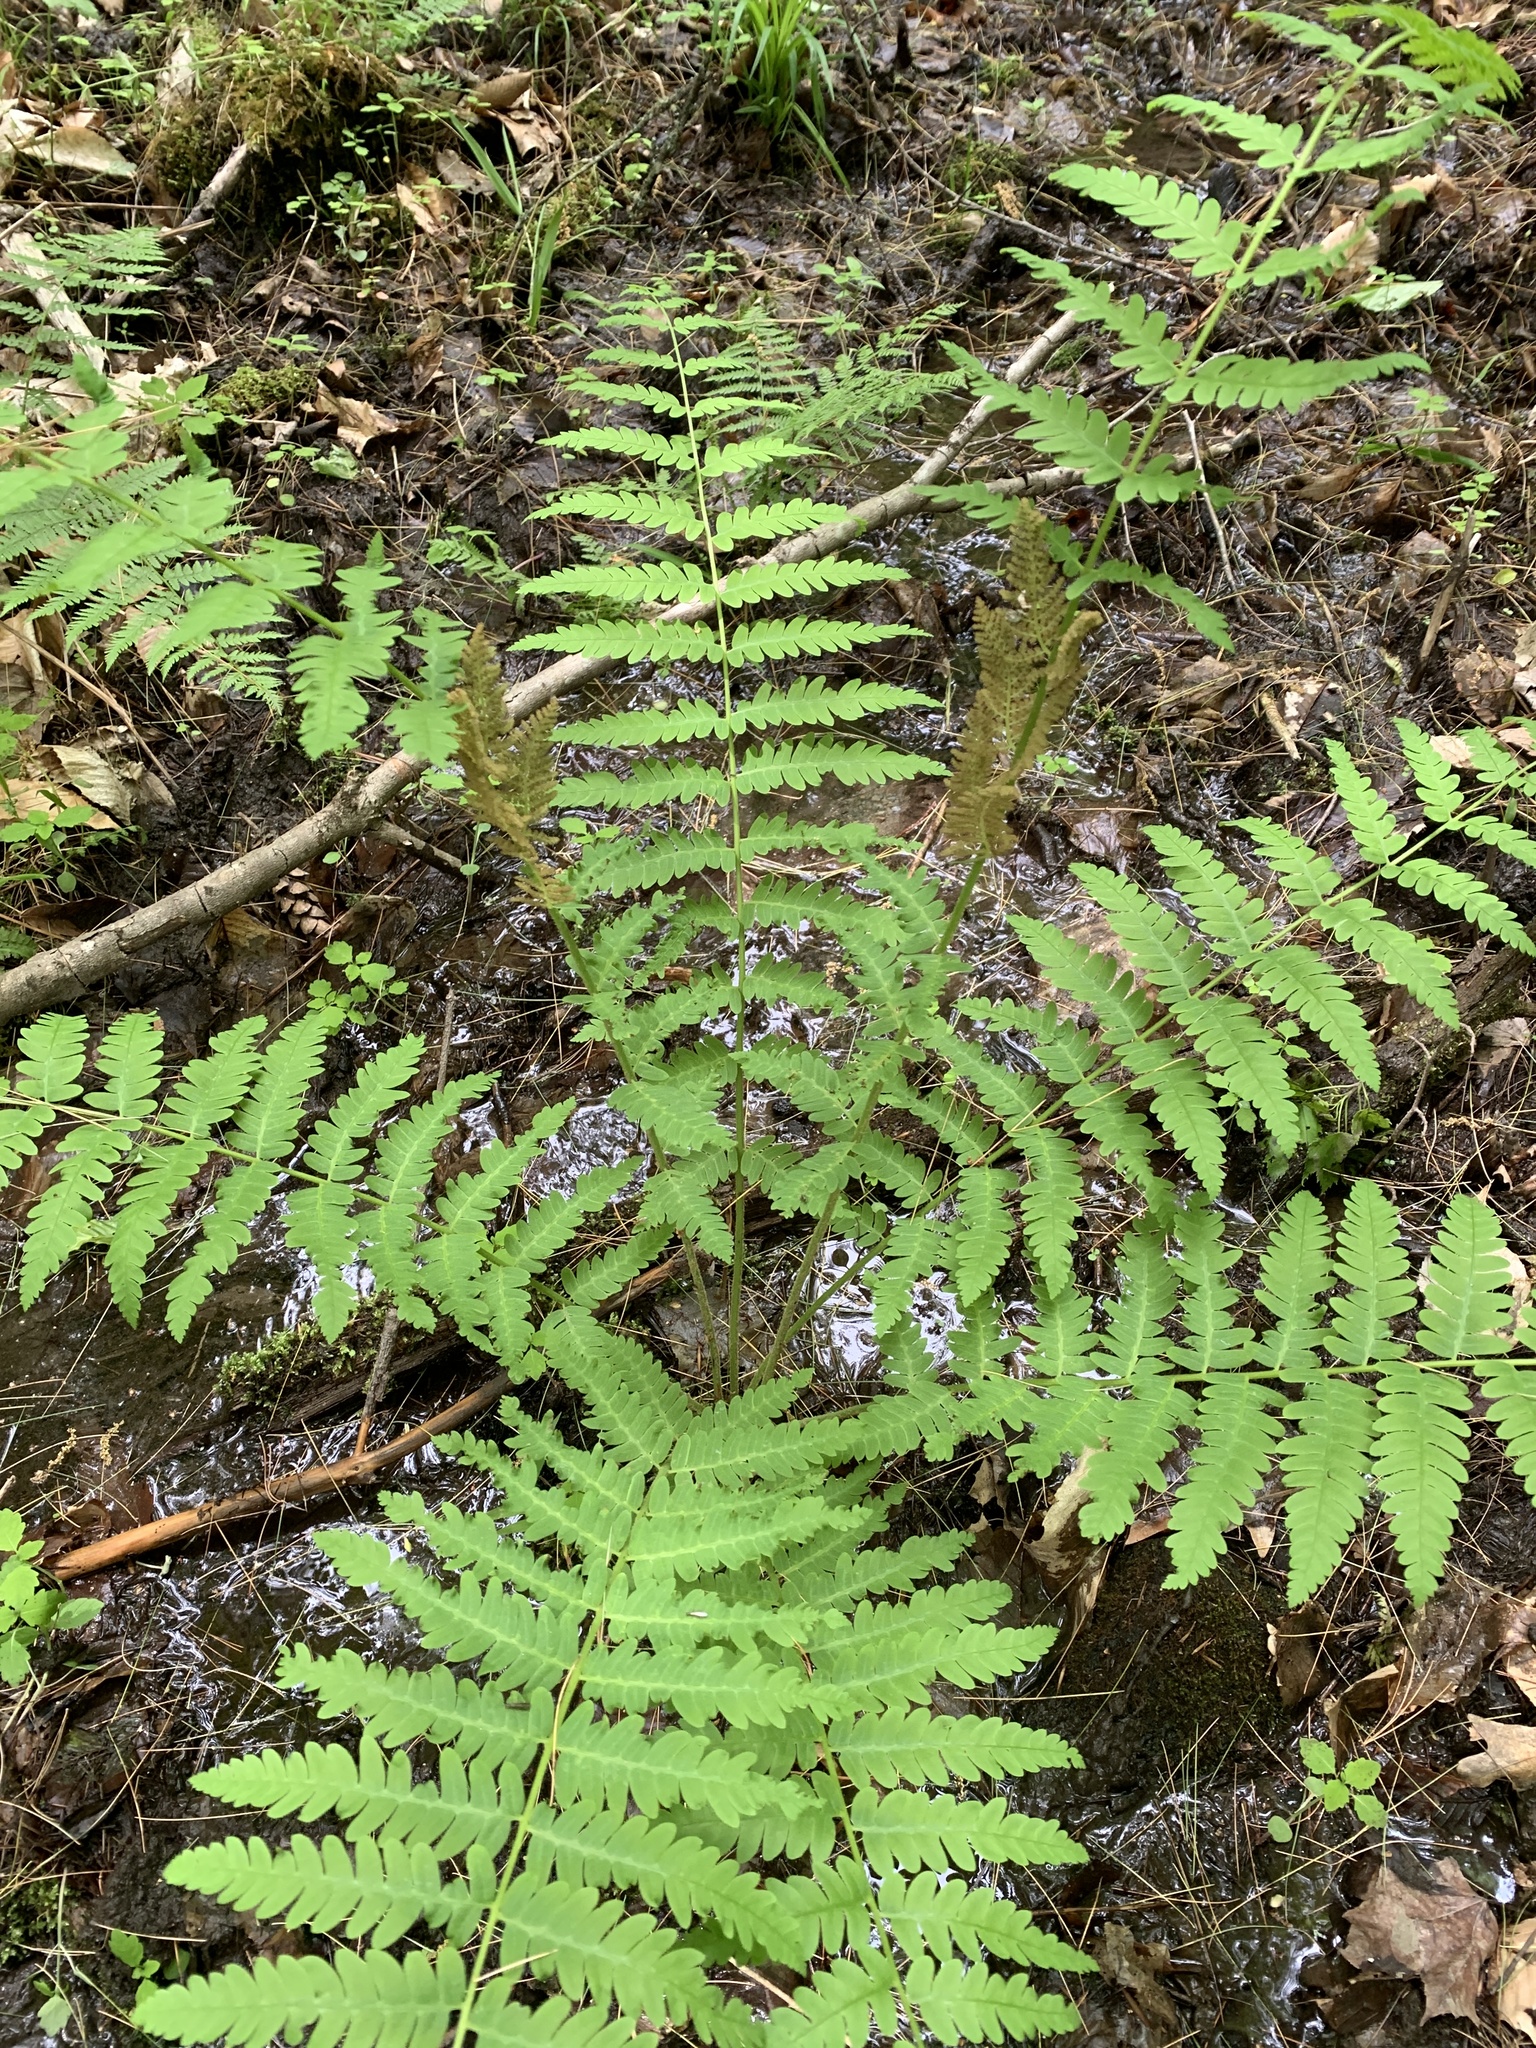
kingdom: Plantae
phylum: Tracheophyta
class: Polypodiopsida
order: Osmundales
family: Osmundaceae
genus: Claytosmunda
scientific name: Claytosmunda claytoniana
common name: Clayton's fern
